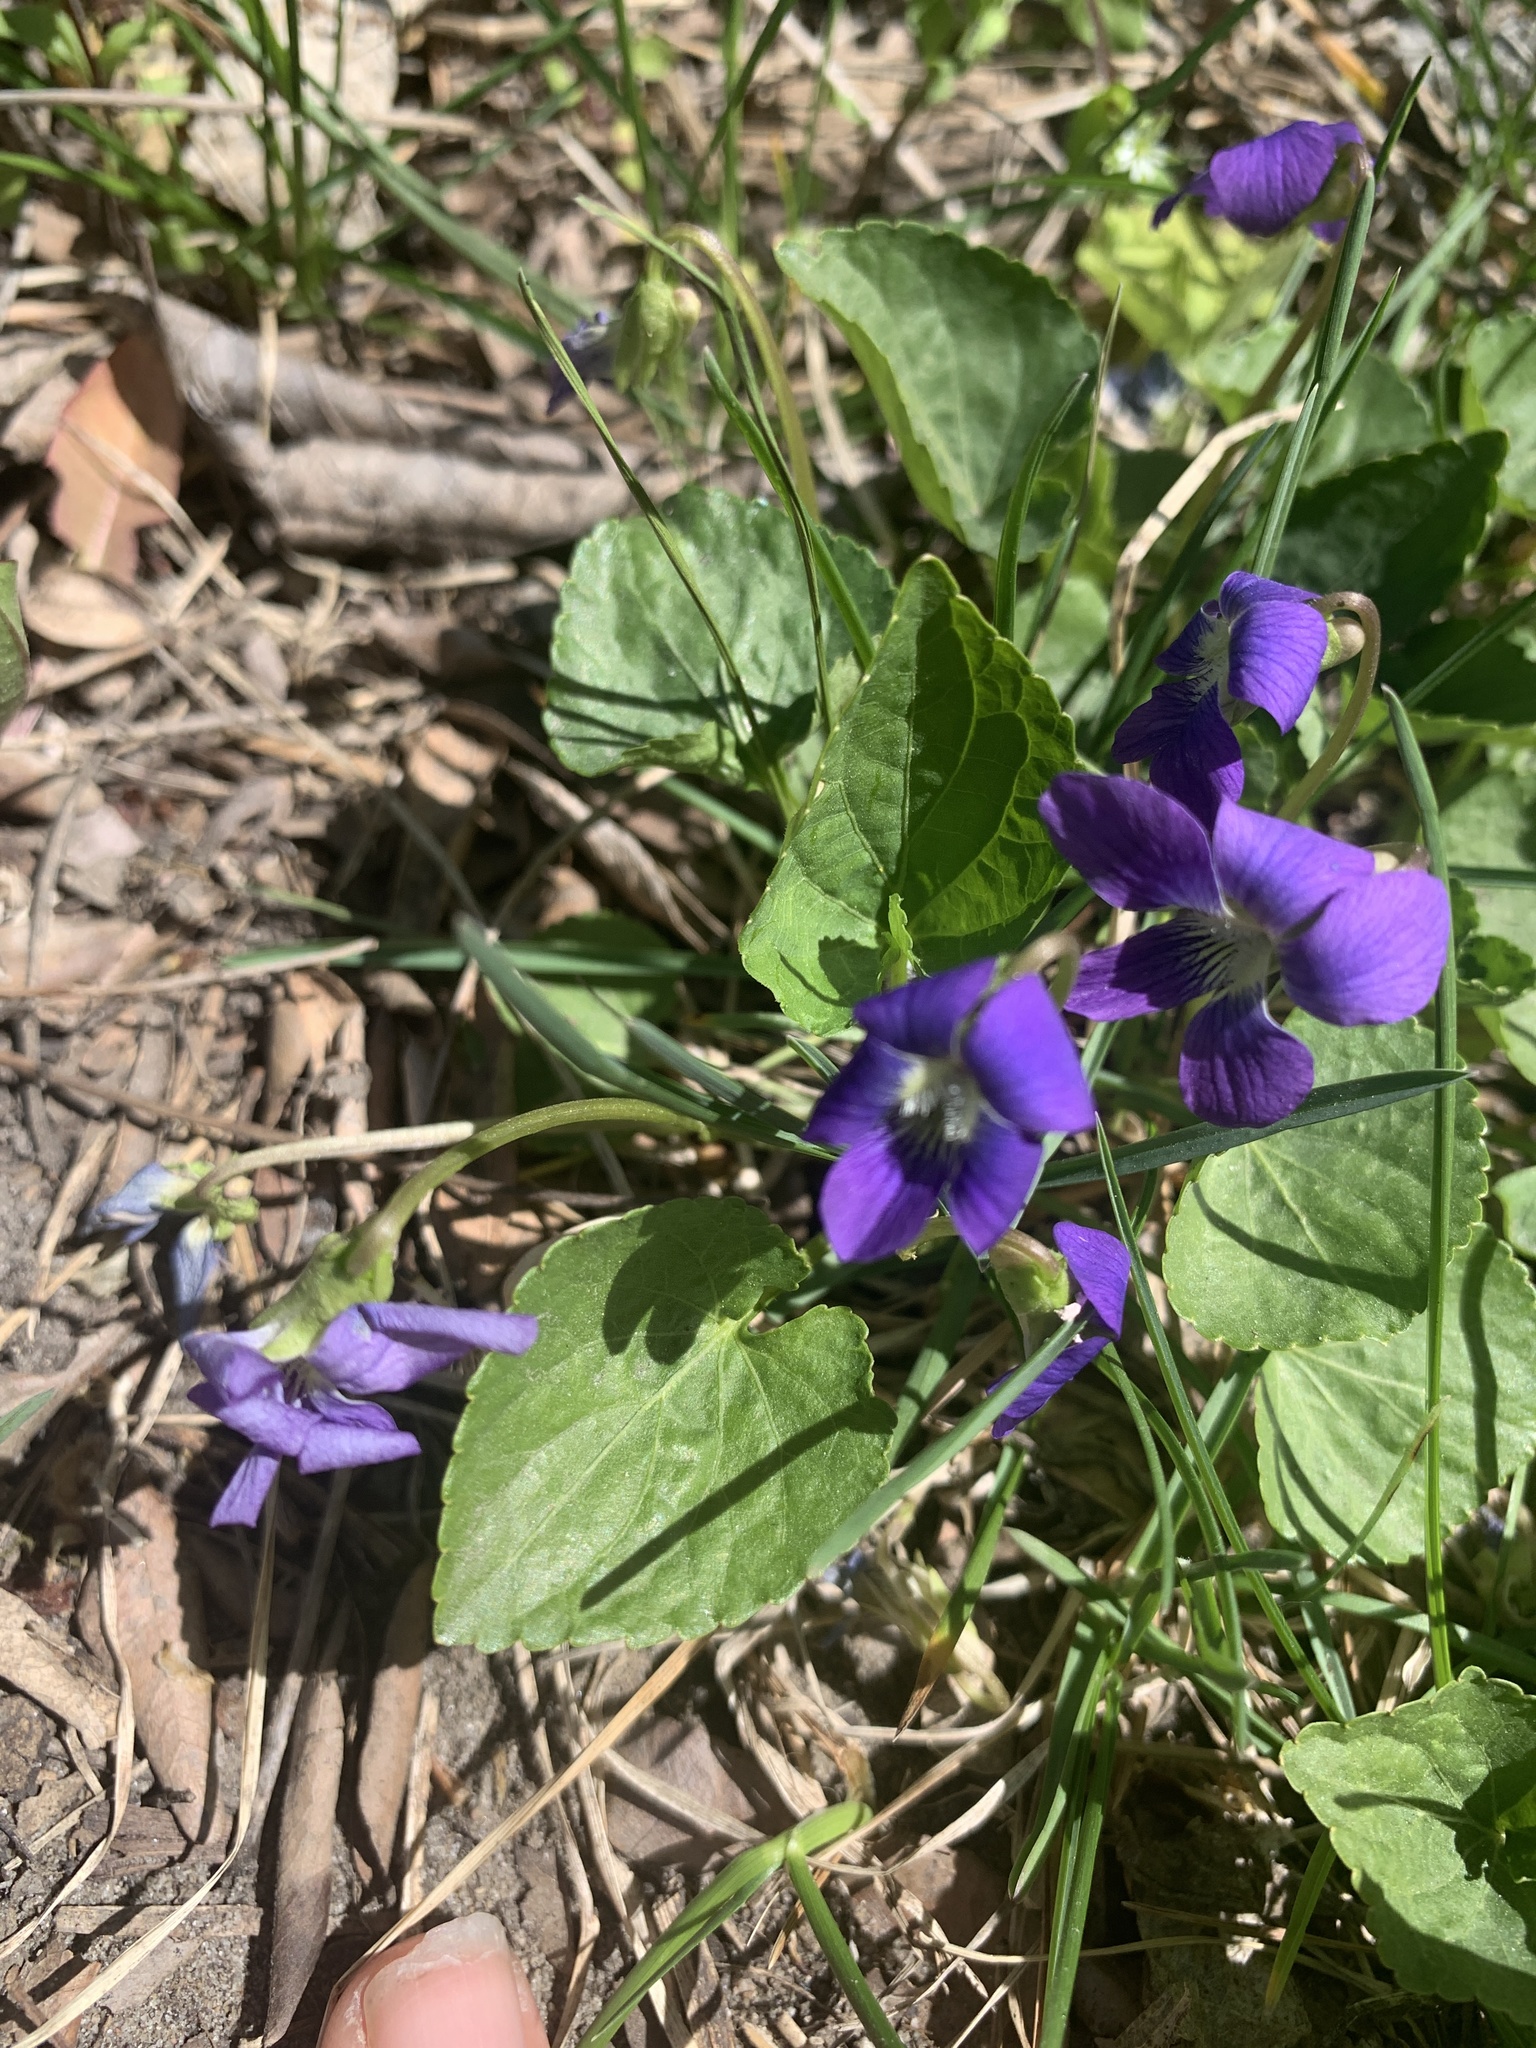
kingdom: Plantae
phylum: Tracheophyta
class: Magnoliopsida
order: Malpighiales
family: Violaceae
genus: Viola
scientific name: Viola sororia
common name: Dooryard violet
